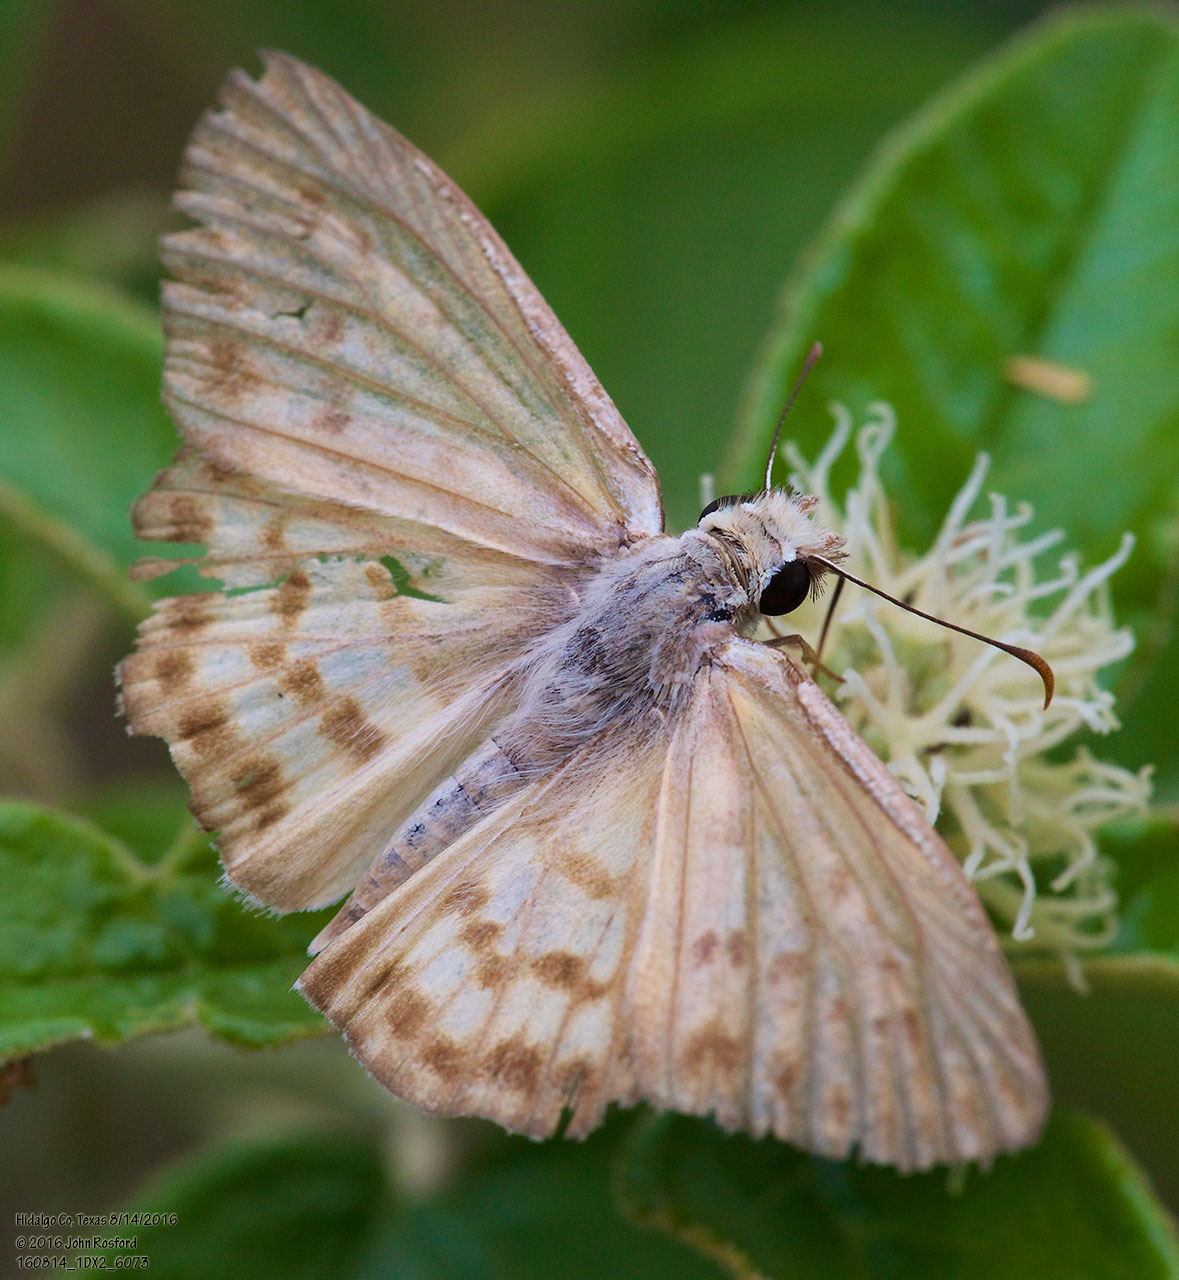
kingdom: Animalia
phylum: Arthropoda
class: Insecta
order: Lepidoptera
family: Hesperiidae
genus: Timochares
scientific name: Timochares ruptifasciata
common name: Brown-banded skipper
